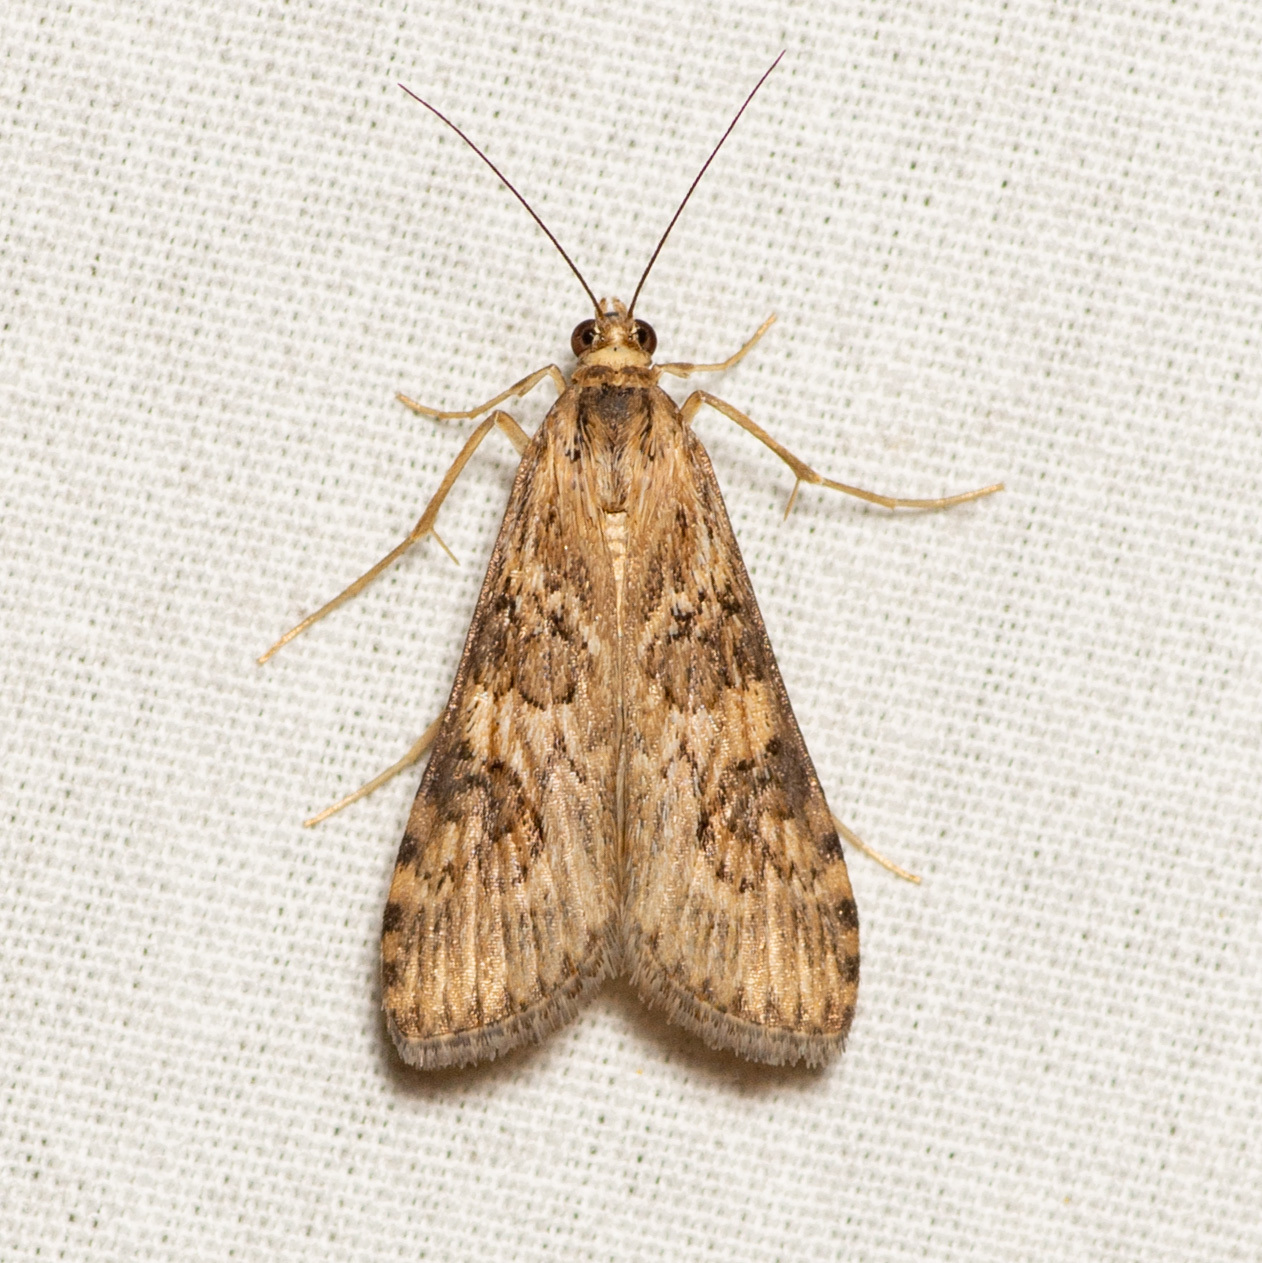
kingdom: Animalia
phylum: Arthropoda
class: Insecta
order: Lepidoptera
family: Crambidae
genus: Nomophila
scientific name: Nomophila nearctica
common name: American rush veneer
